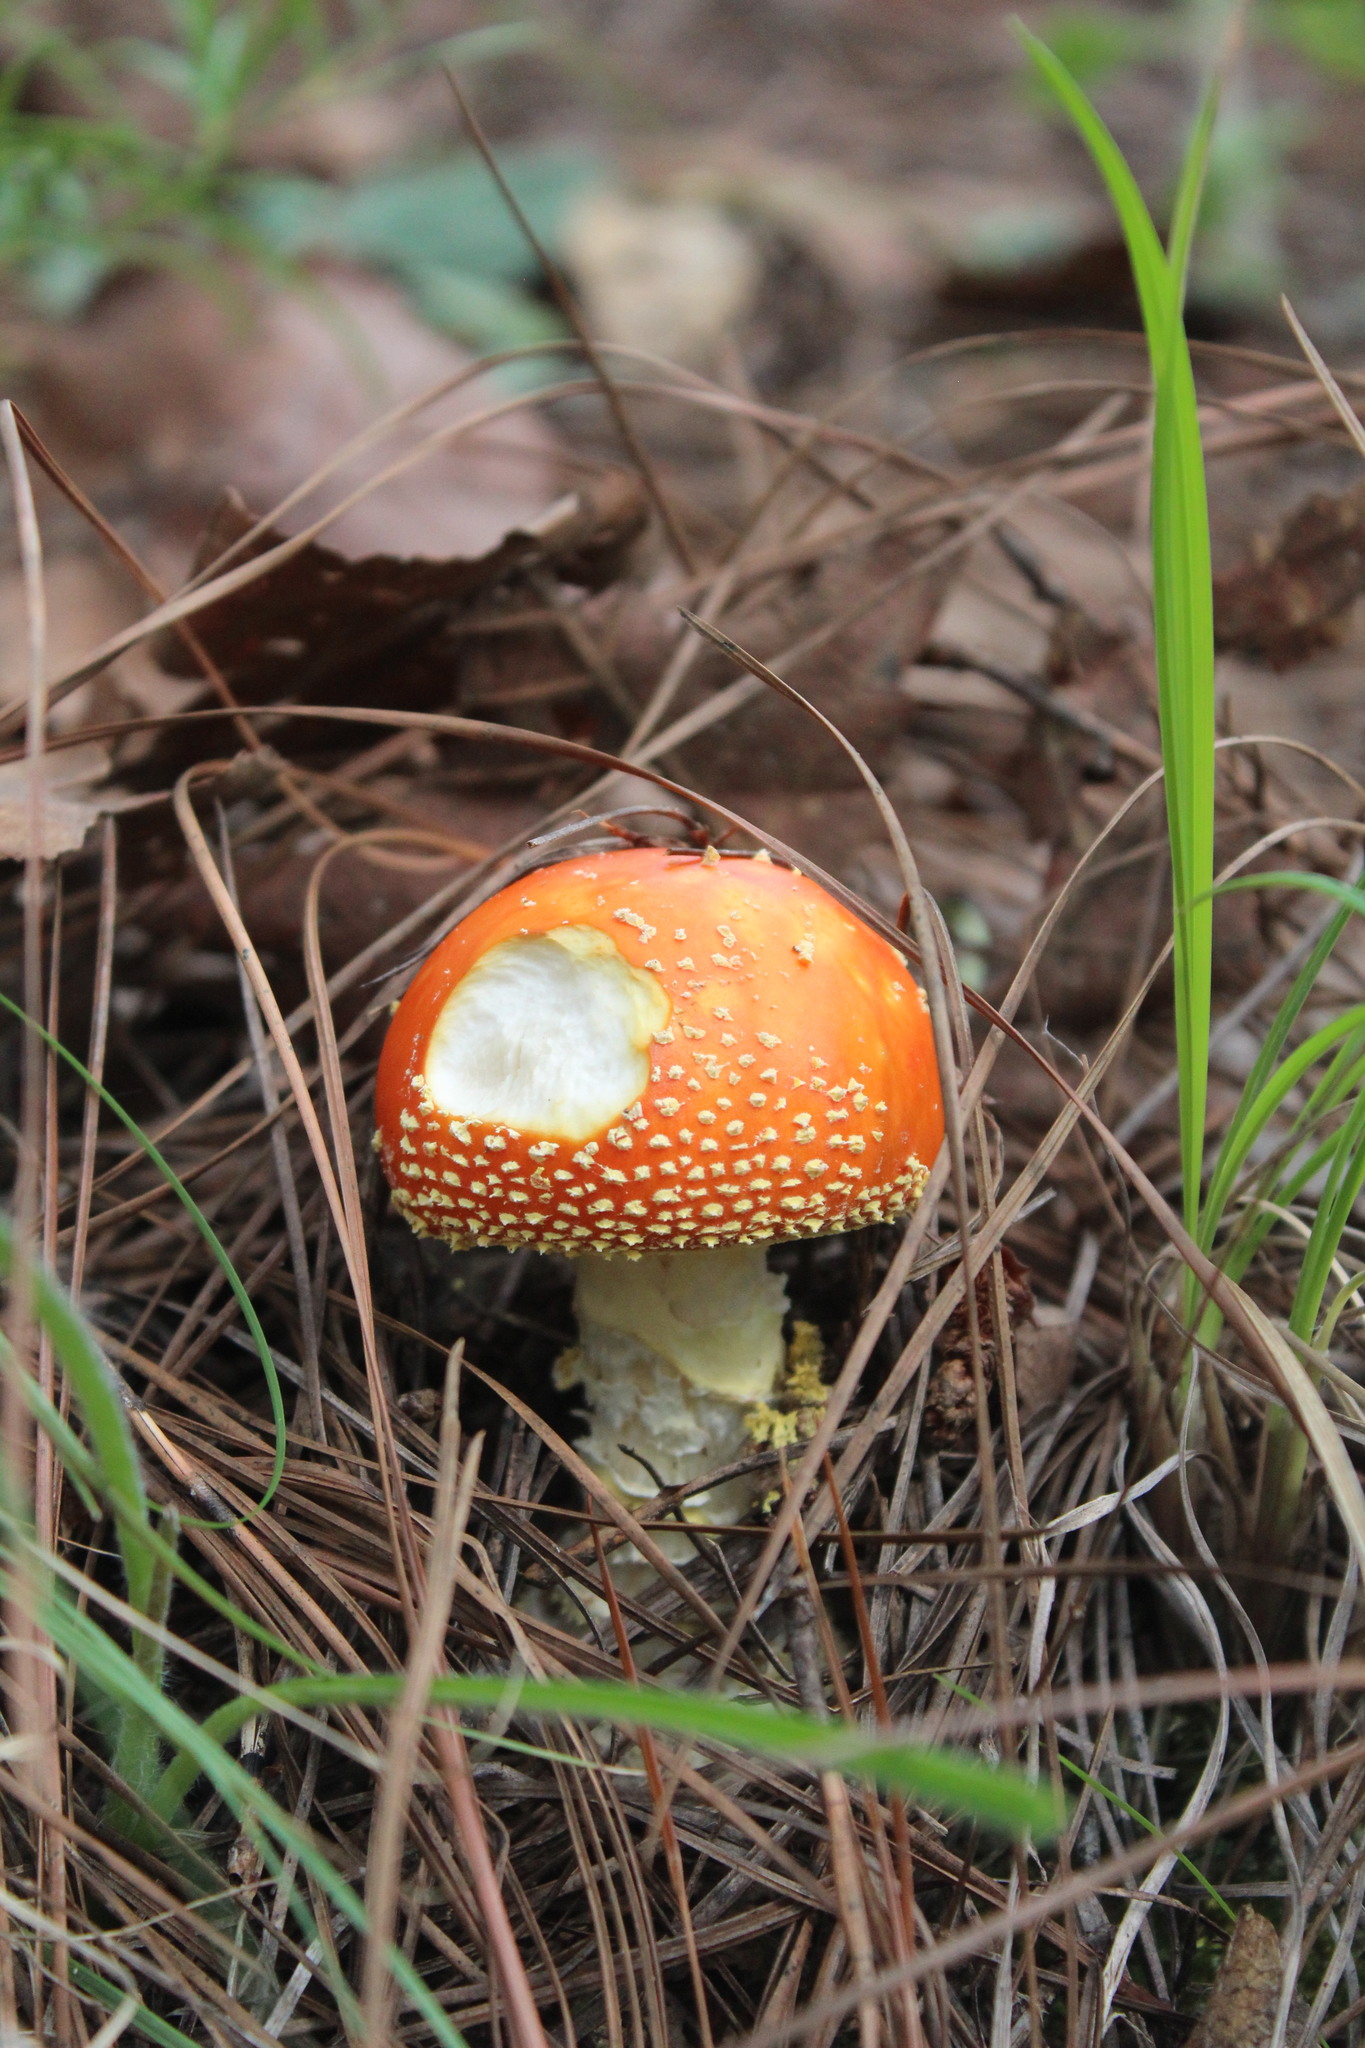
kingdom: Fungi
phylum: Basidiomycota
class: Agaricomycetes
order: Agaricales
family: Amanitaceae
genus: Amanita
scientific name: Amanita muscaria
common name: Fly agaric
